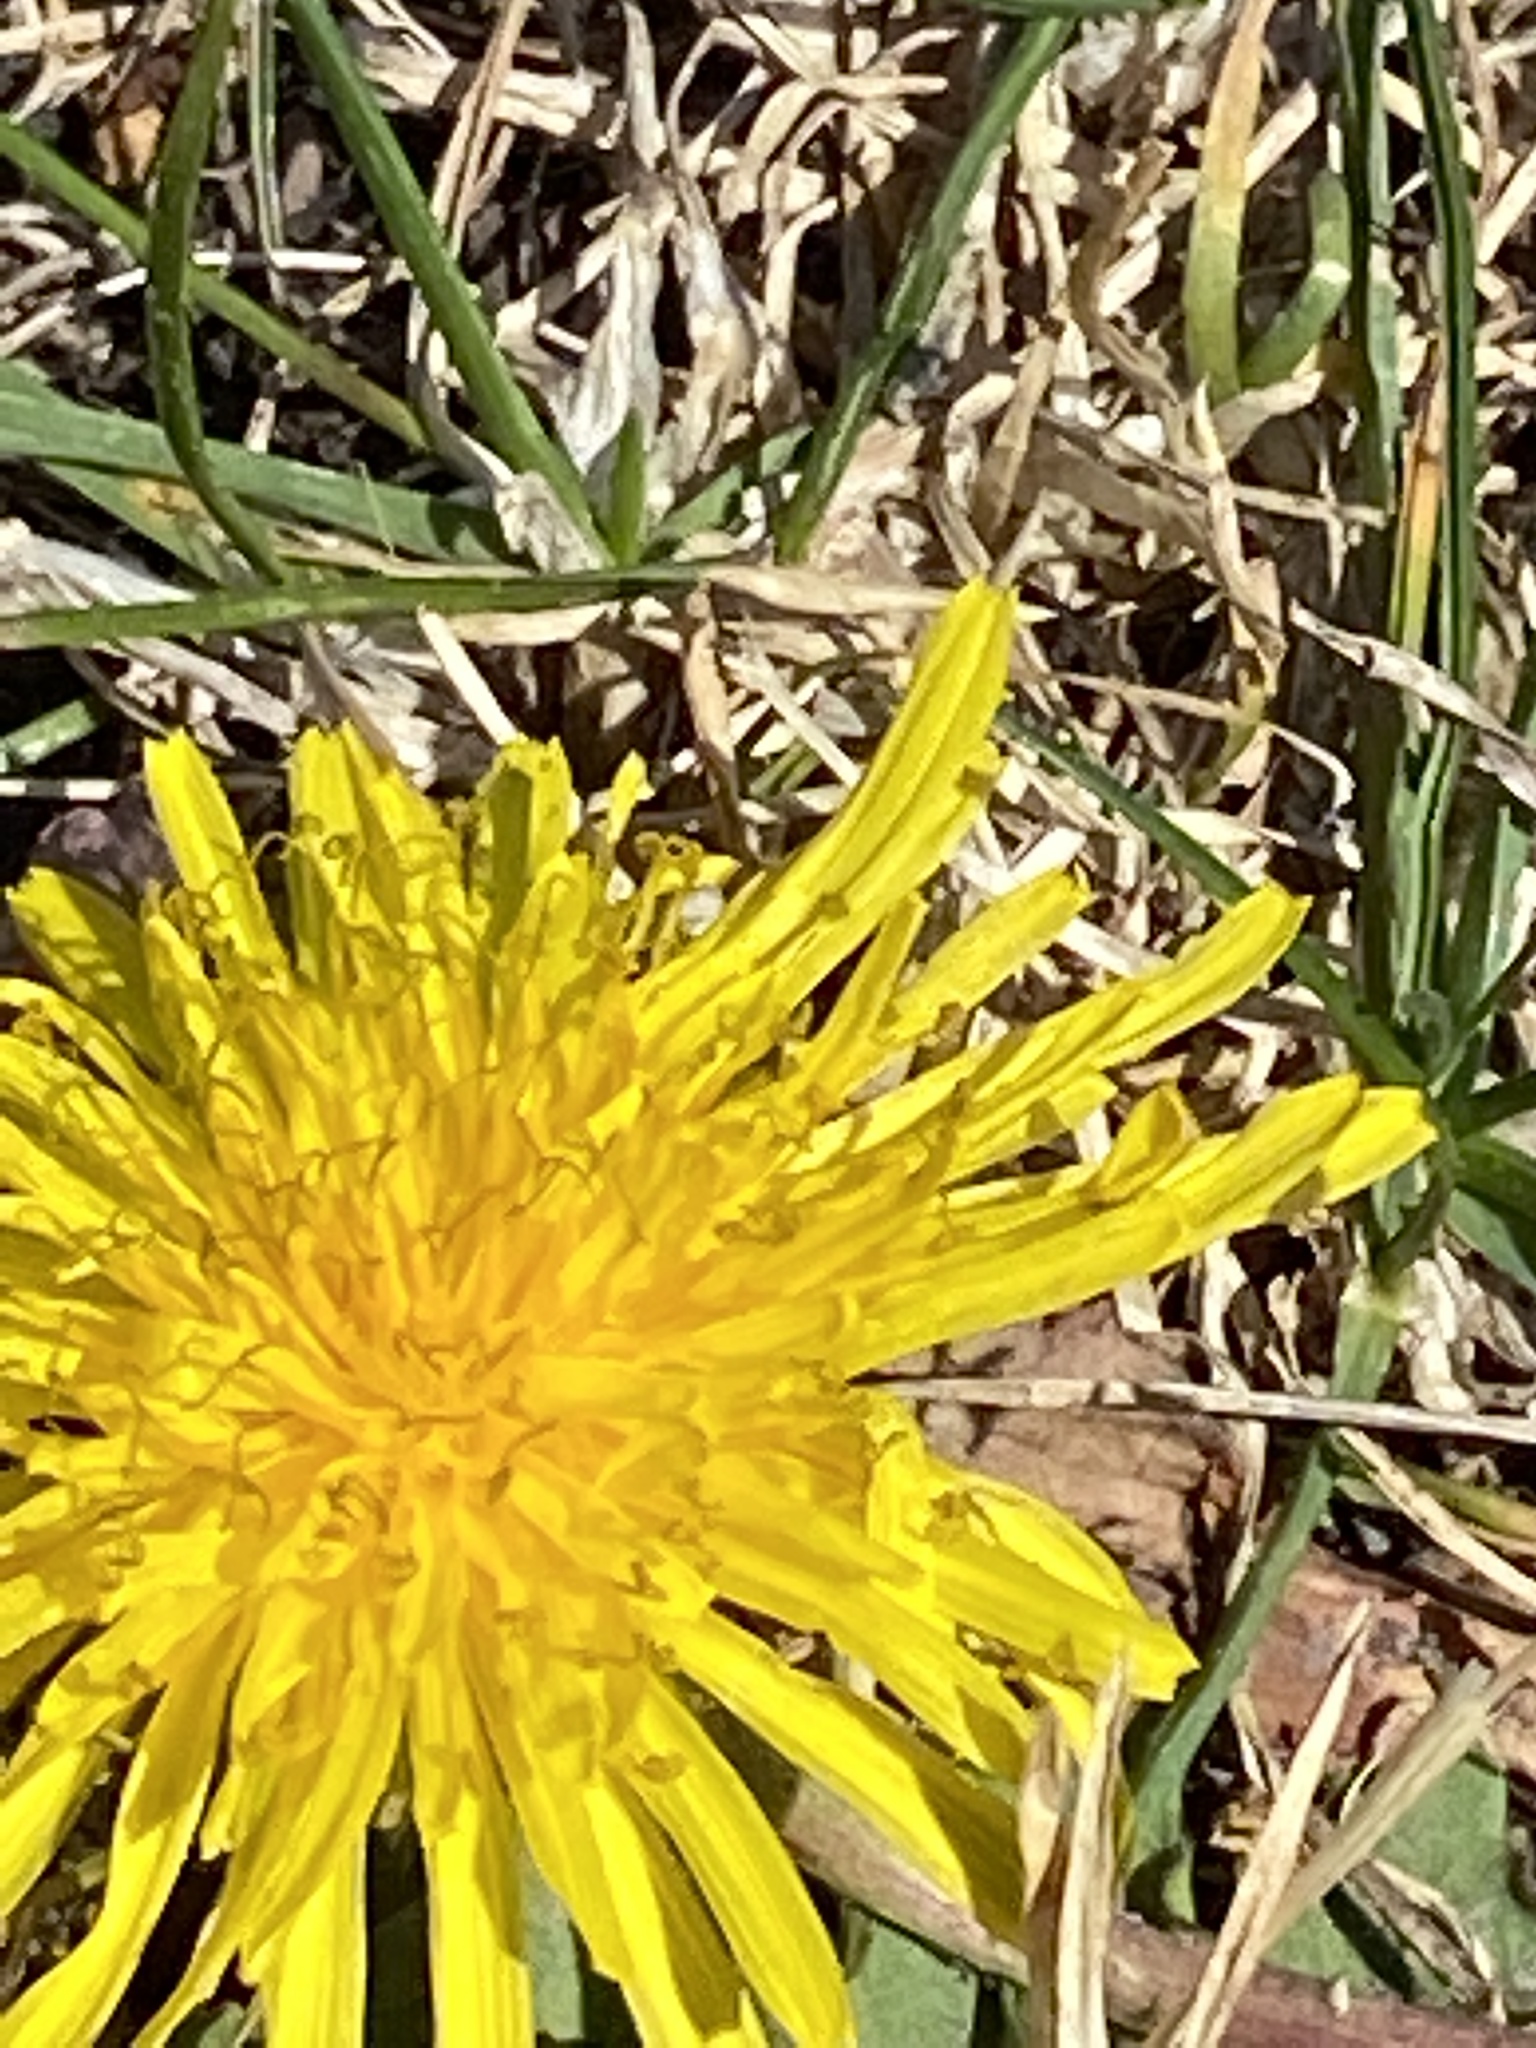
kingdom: Plantae
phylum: Tracheophyta
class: Magnoliopsida
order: Asterales
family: Asteraceae
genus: Taraxacum
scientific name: Taraxacum officinale
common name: Common dandelion
